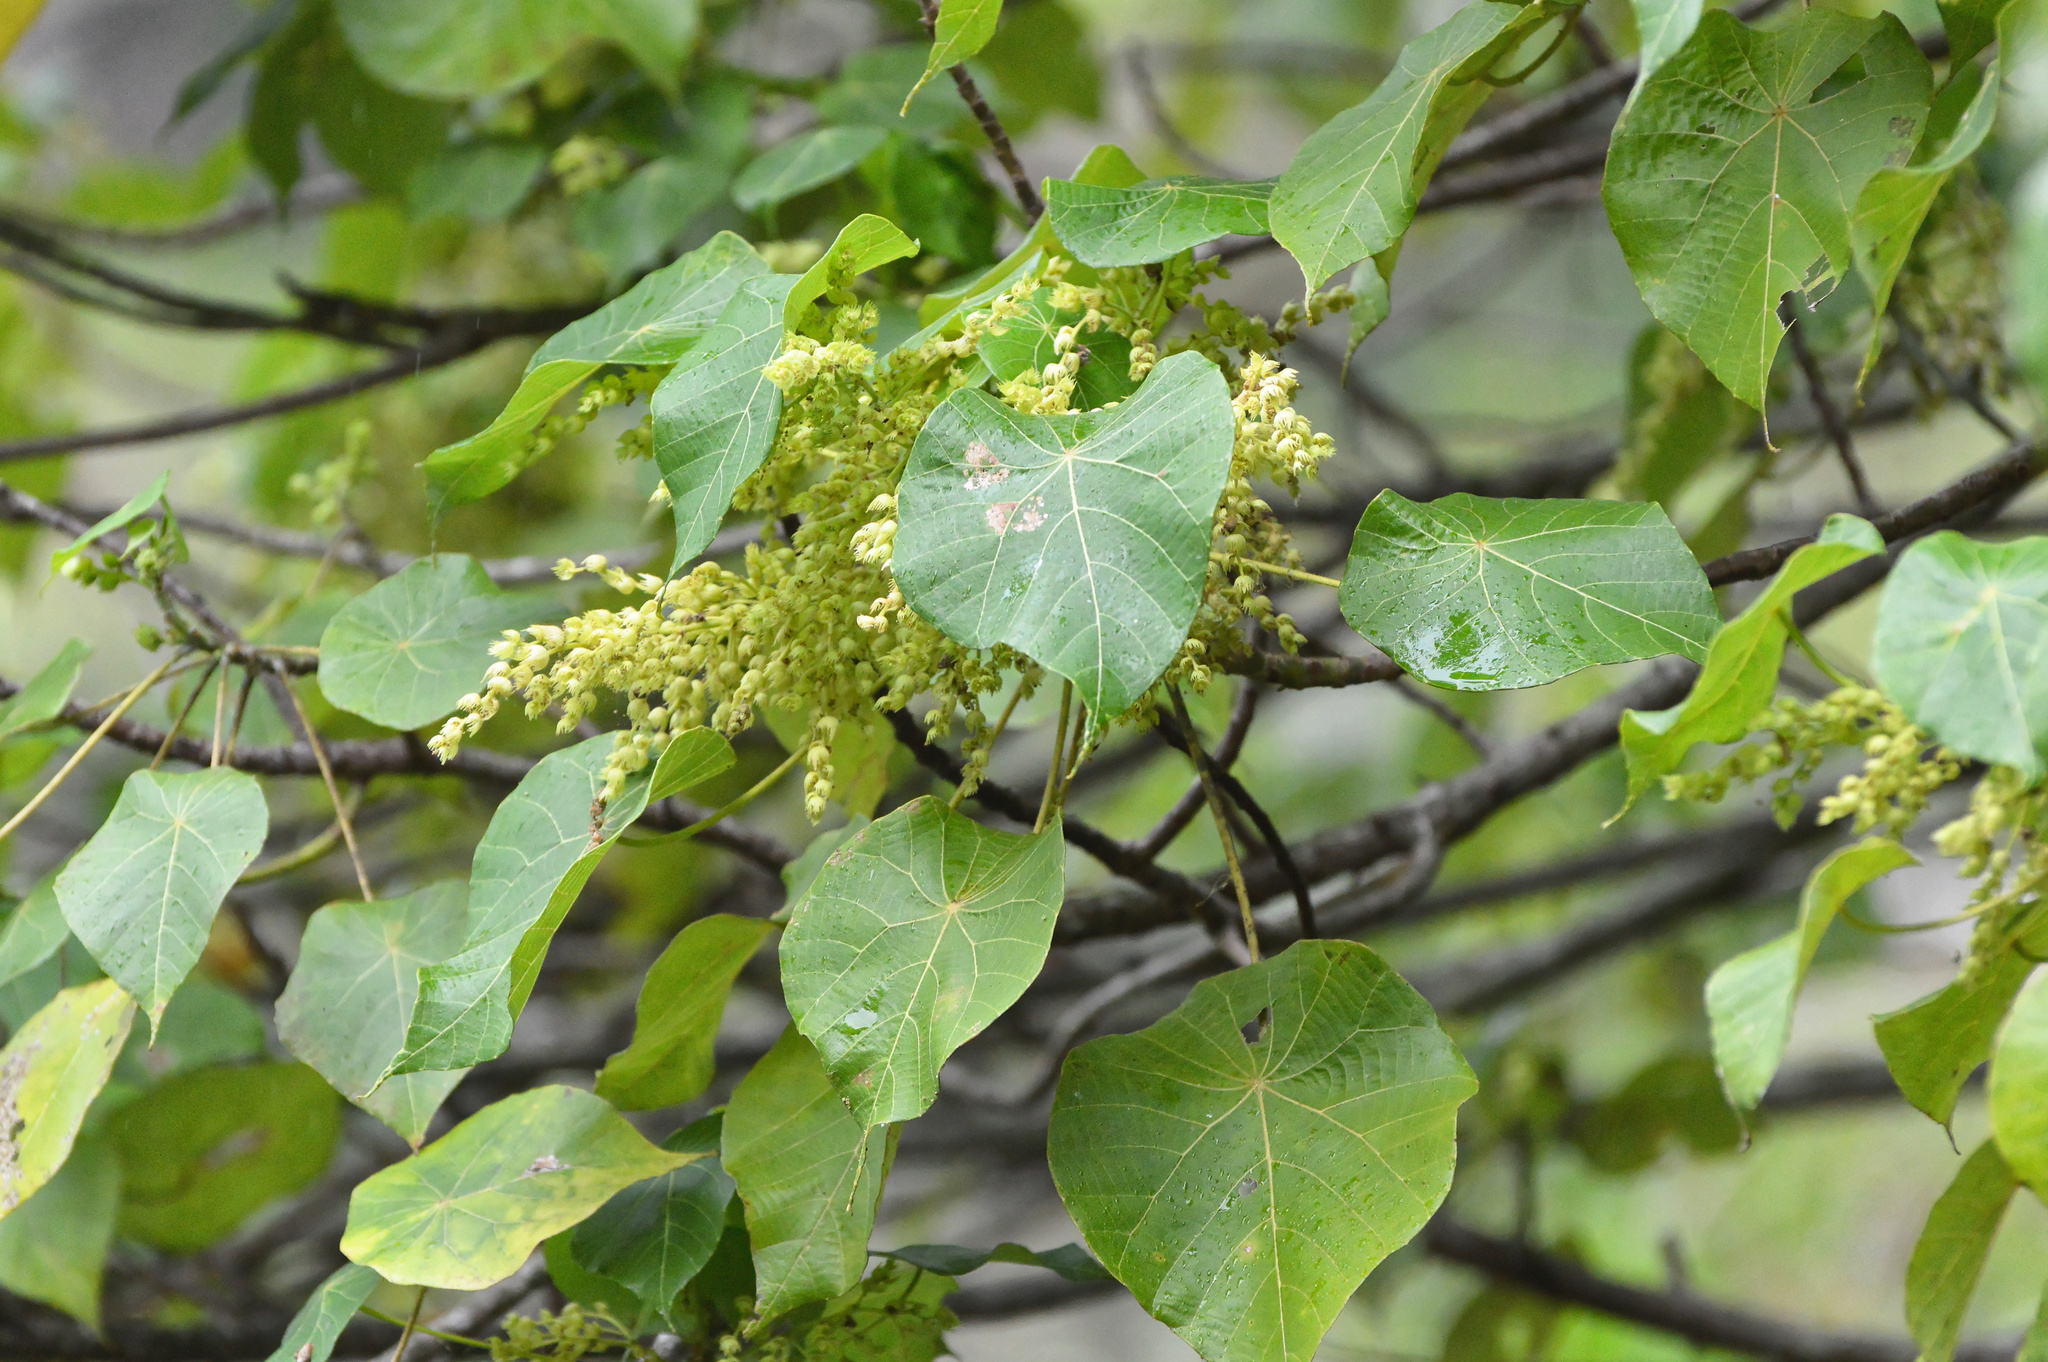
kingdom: Plantae
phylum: Tracheophyta
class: Magnoliopsida
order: Malpighiales
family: Euphorbiaceae
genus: Macaranga
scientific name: Macaranga tanarius
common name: Parasol leaf tree
